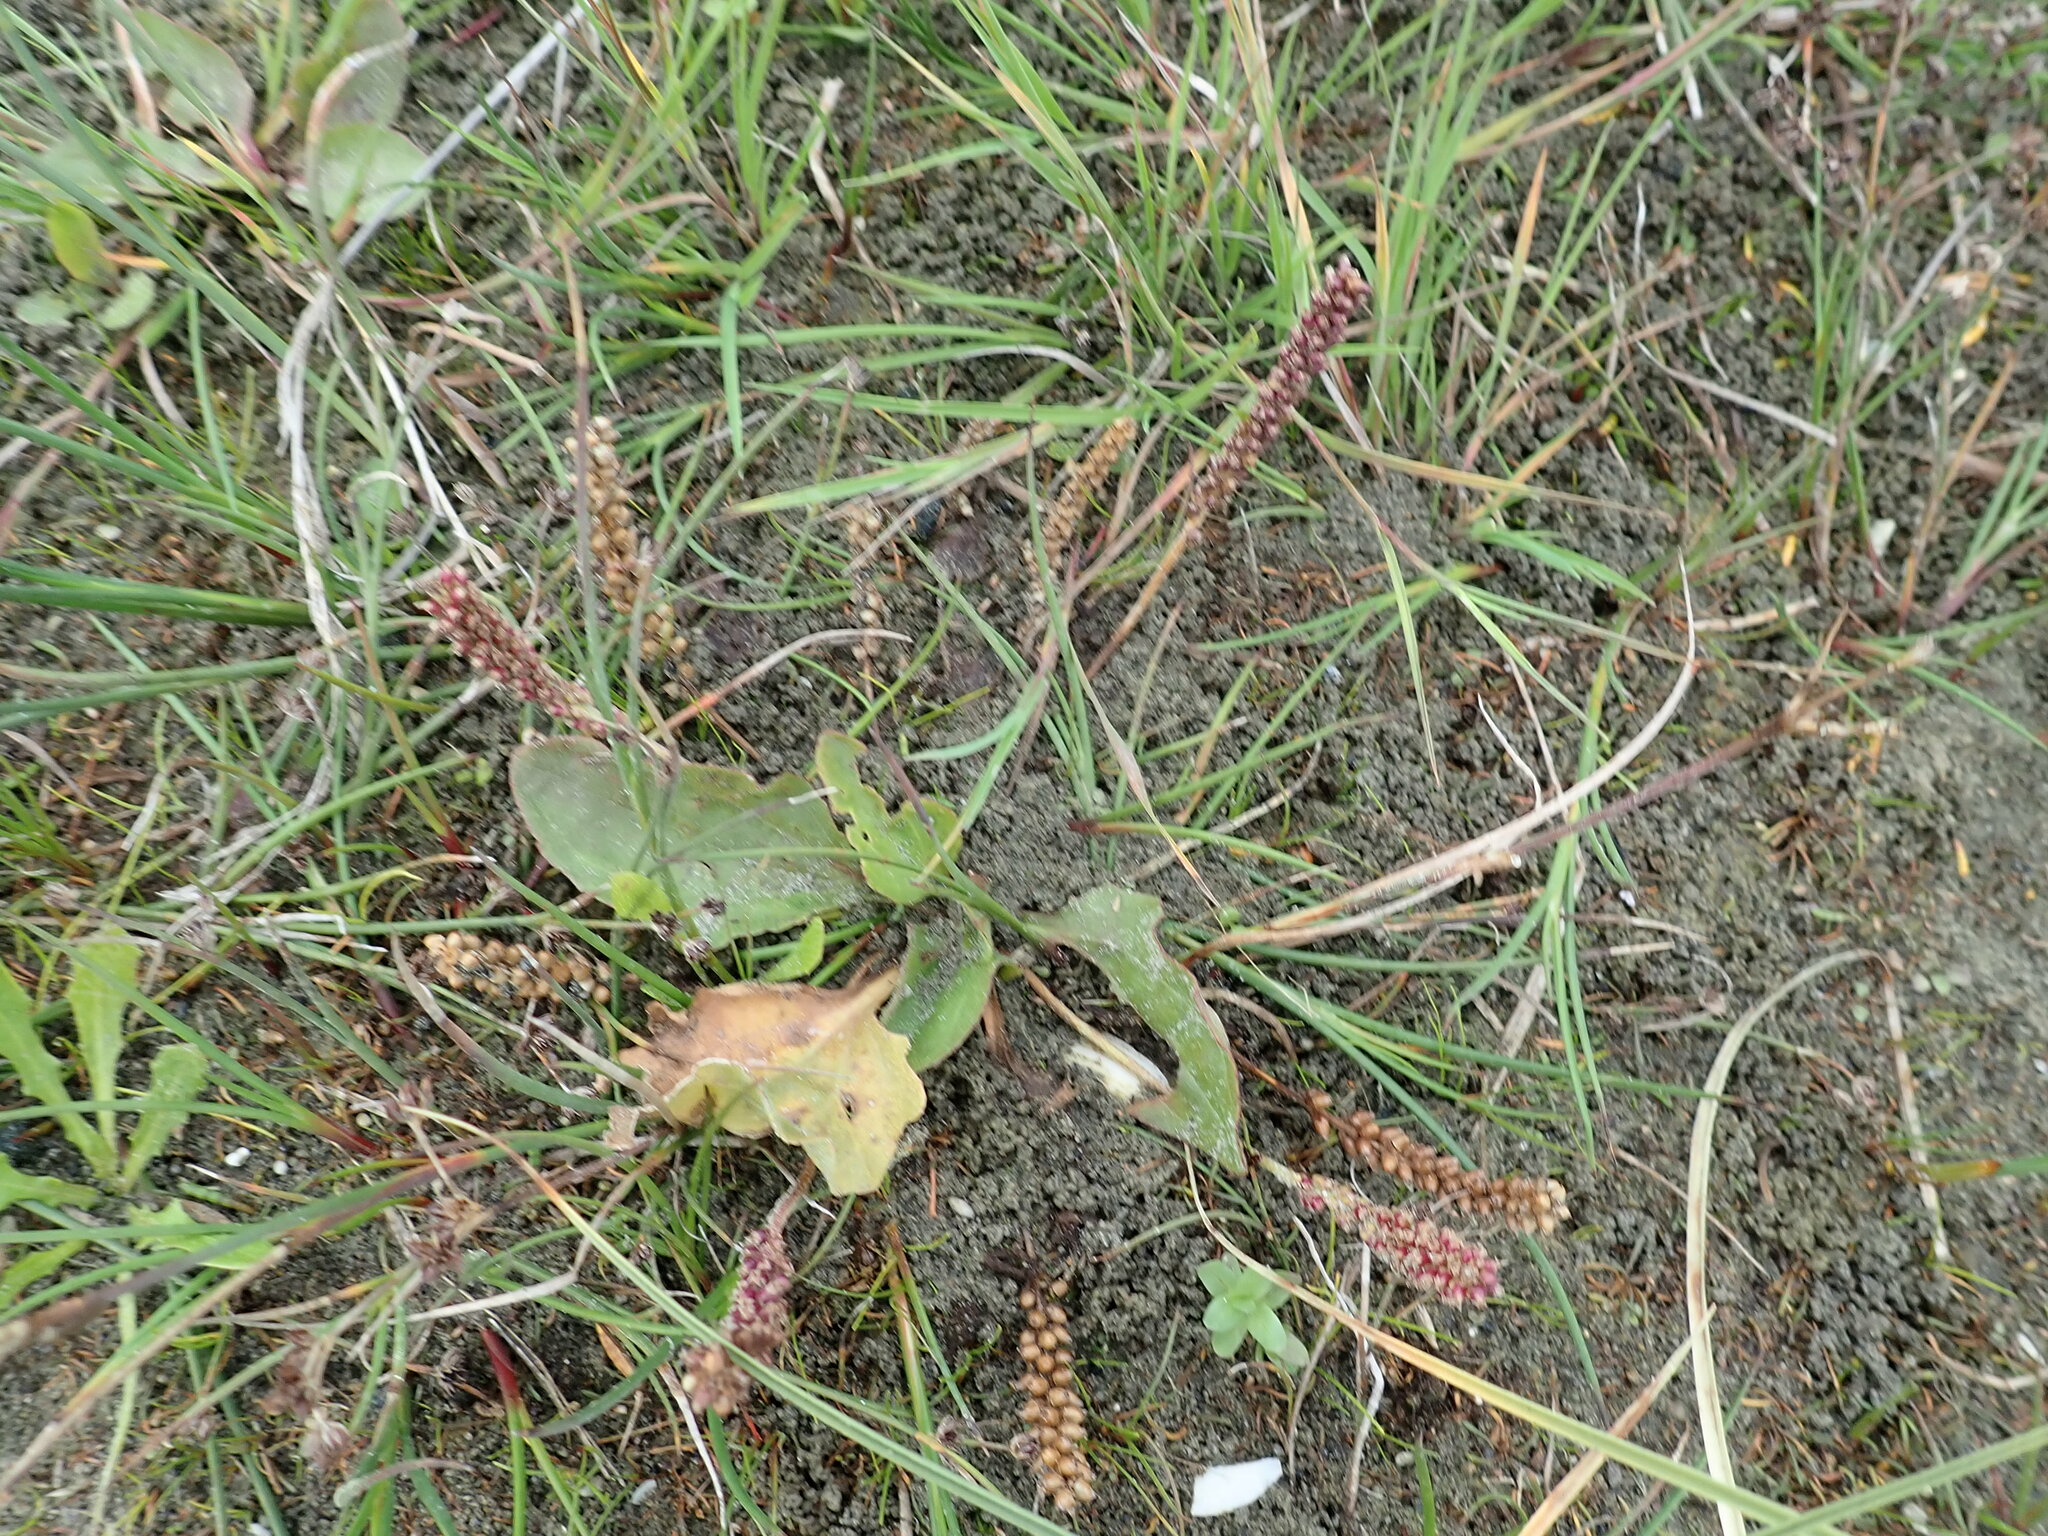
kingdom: Plantae
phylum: Tracheophyta
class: Magnoliopsida
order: Lamiales
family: Plantaginaceae
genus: Plantago
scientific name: Plantago major
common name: Common plantain
